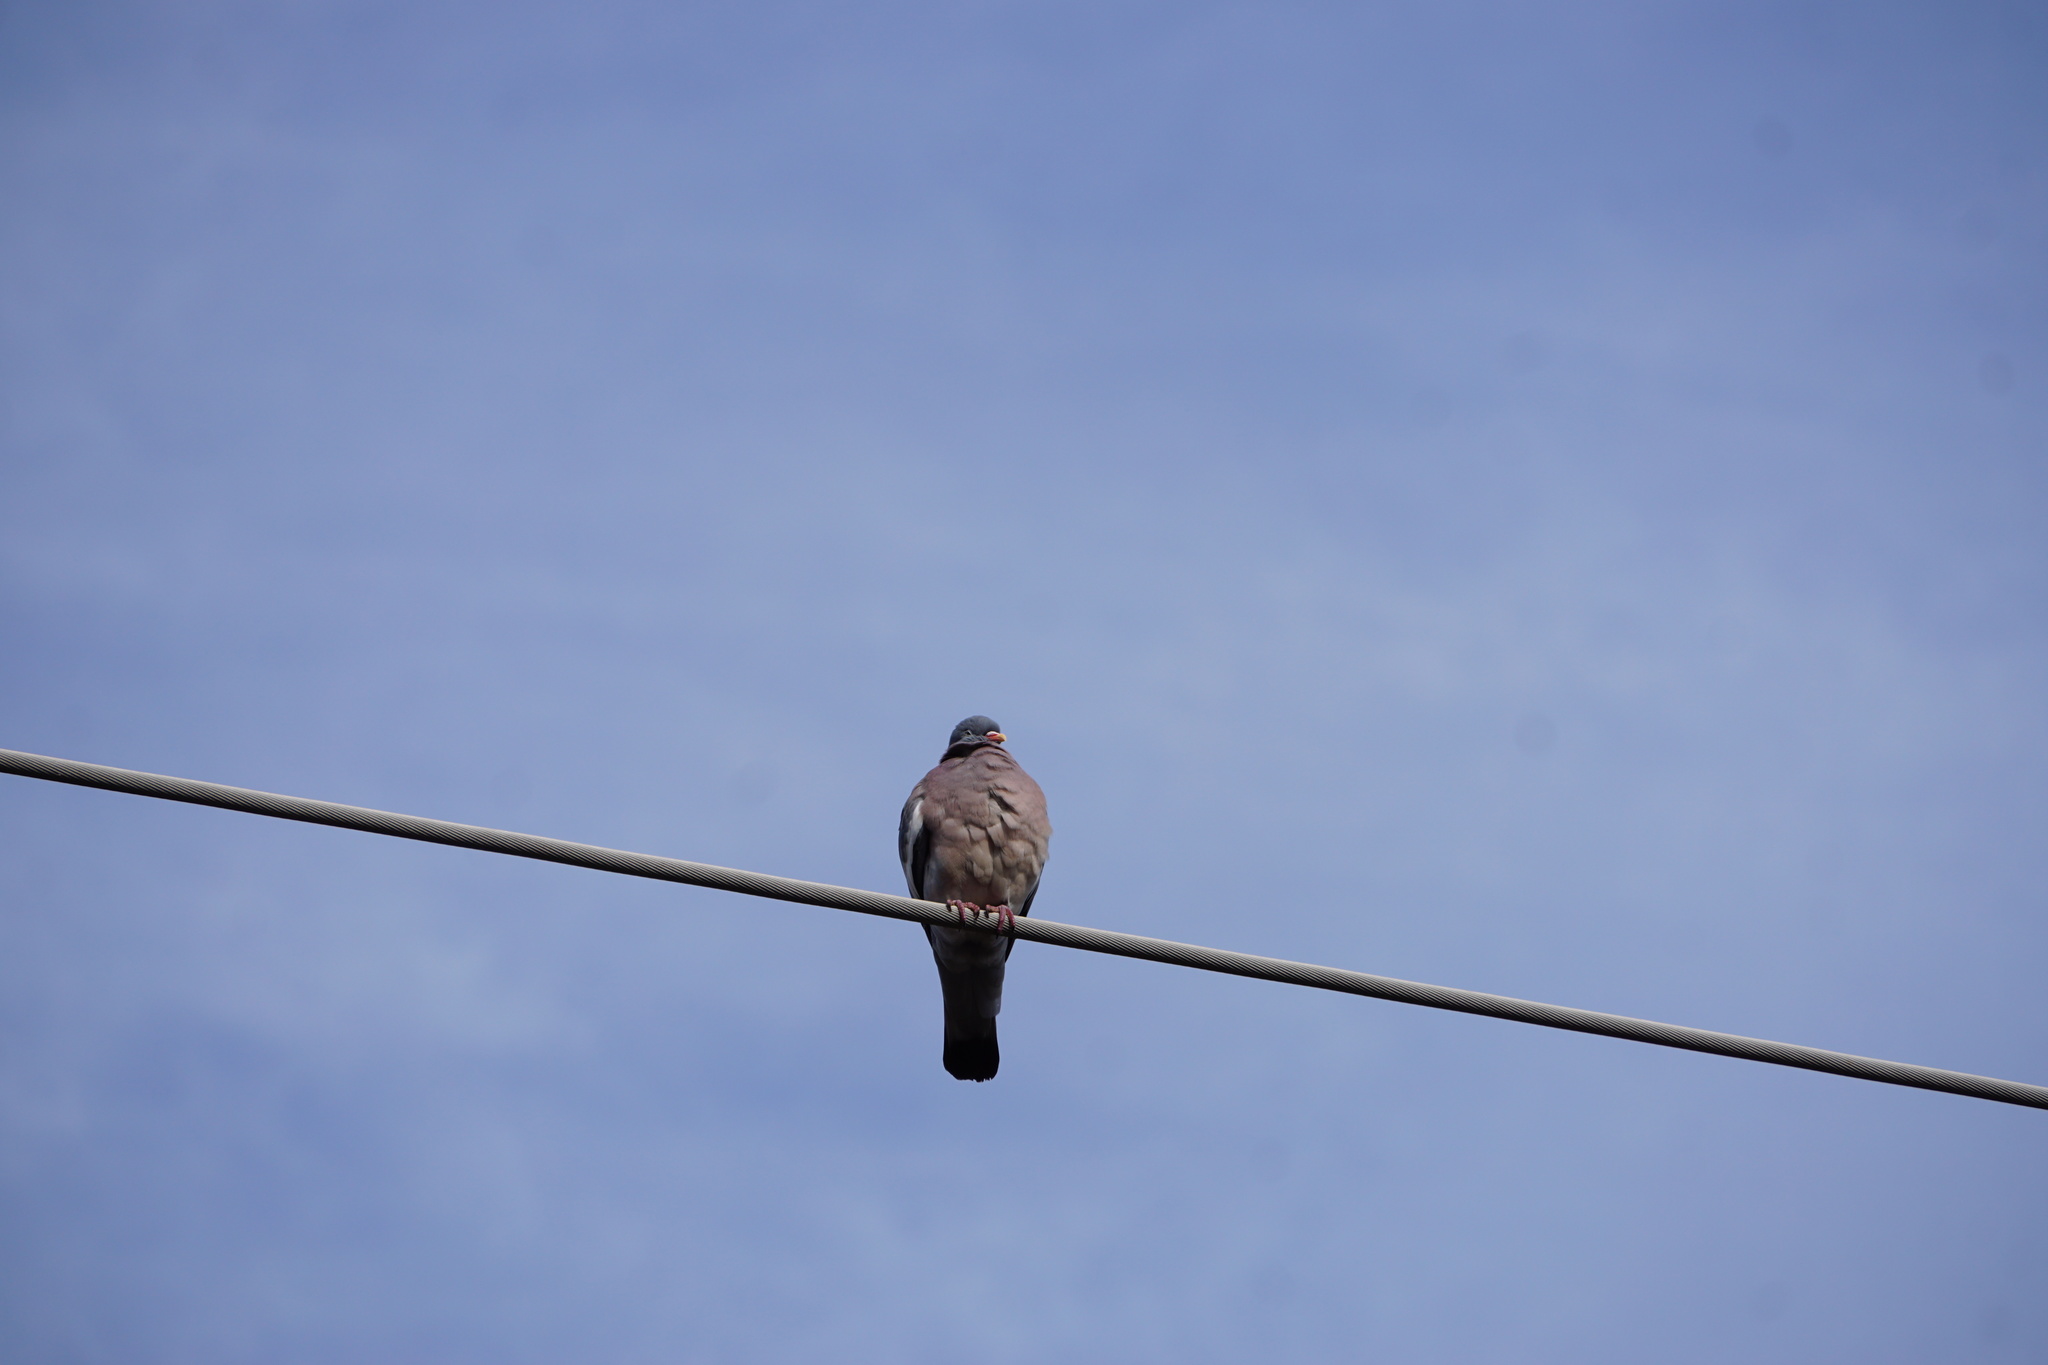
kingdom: Animalia
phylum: Chordata
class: Aves
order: Columbiformes
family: Columbidae
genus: Columba
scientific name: Columba palumbus
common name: Common wood pigeon
